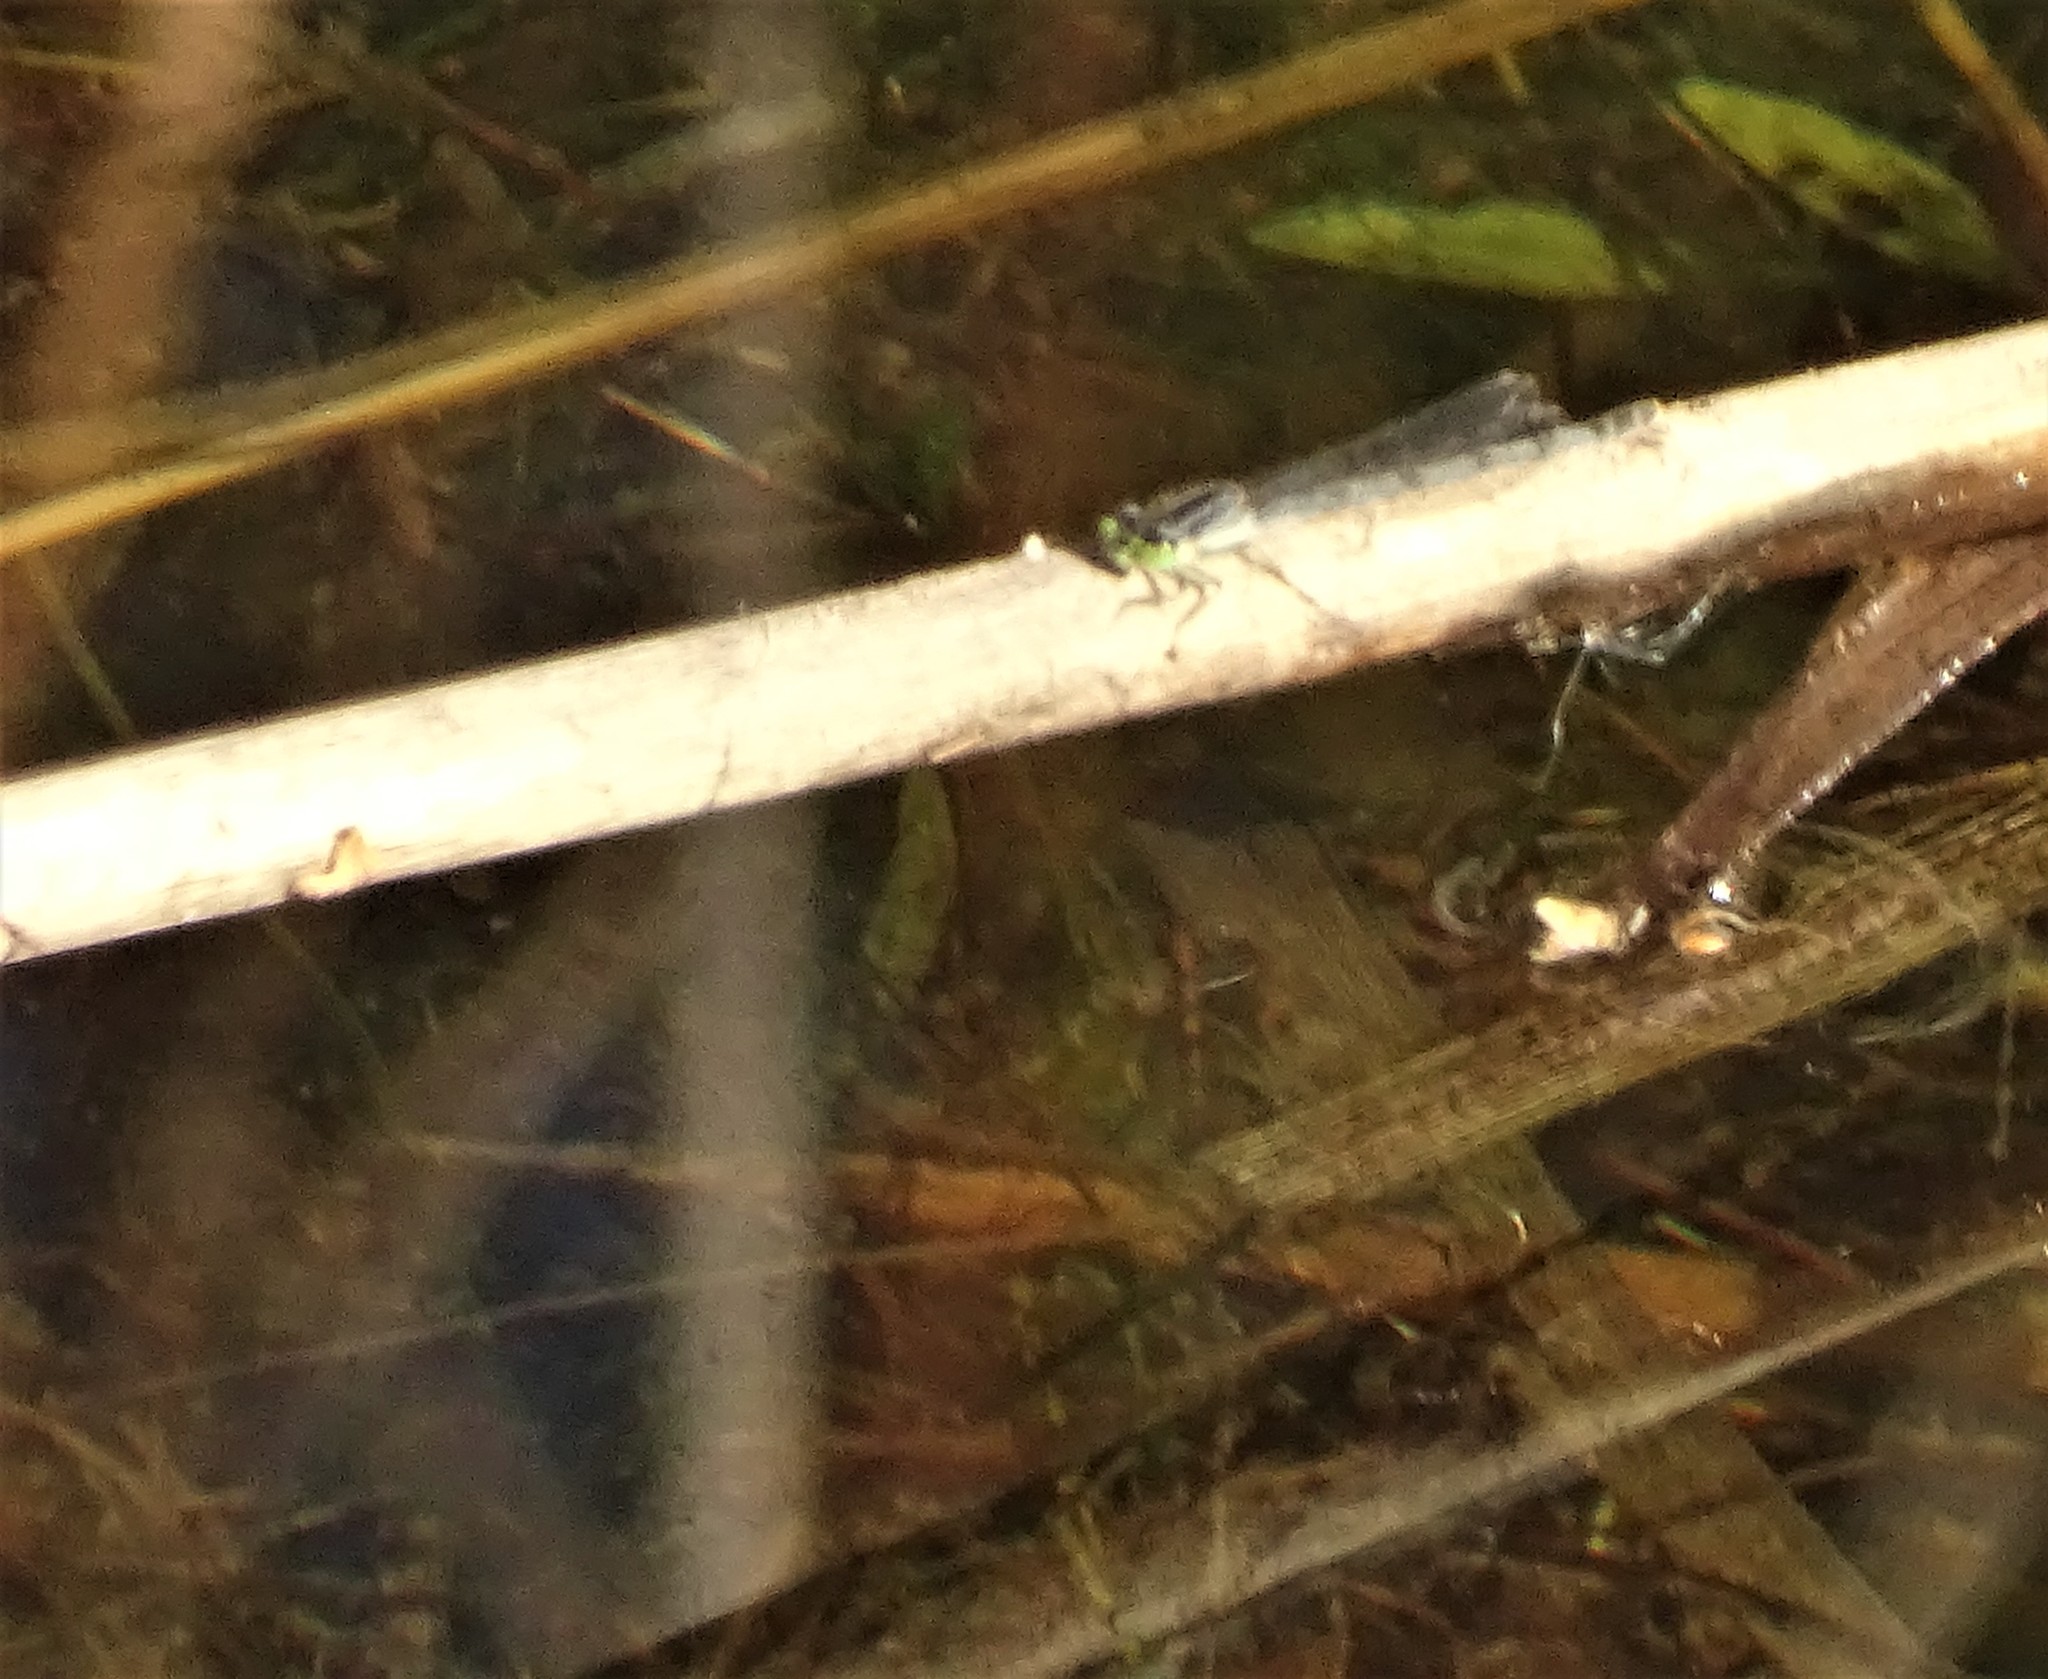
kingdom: Animalia
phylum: Arthropoda
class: Insecta
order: Odonata
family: Coenagrionidae
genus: Ischnura
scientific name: Ischnura verticalis
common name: Eastern forktail
